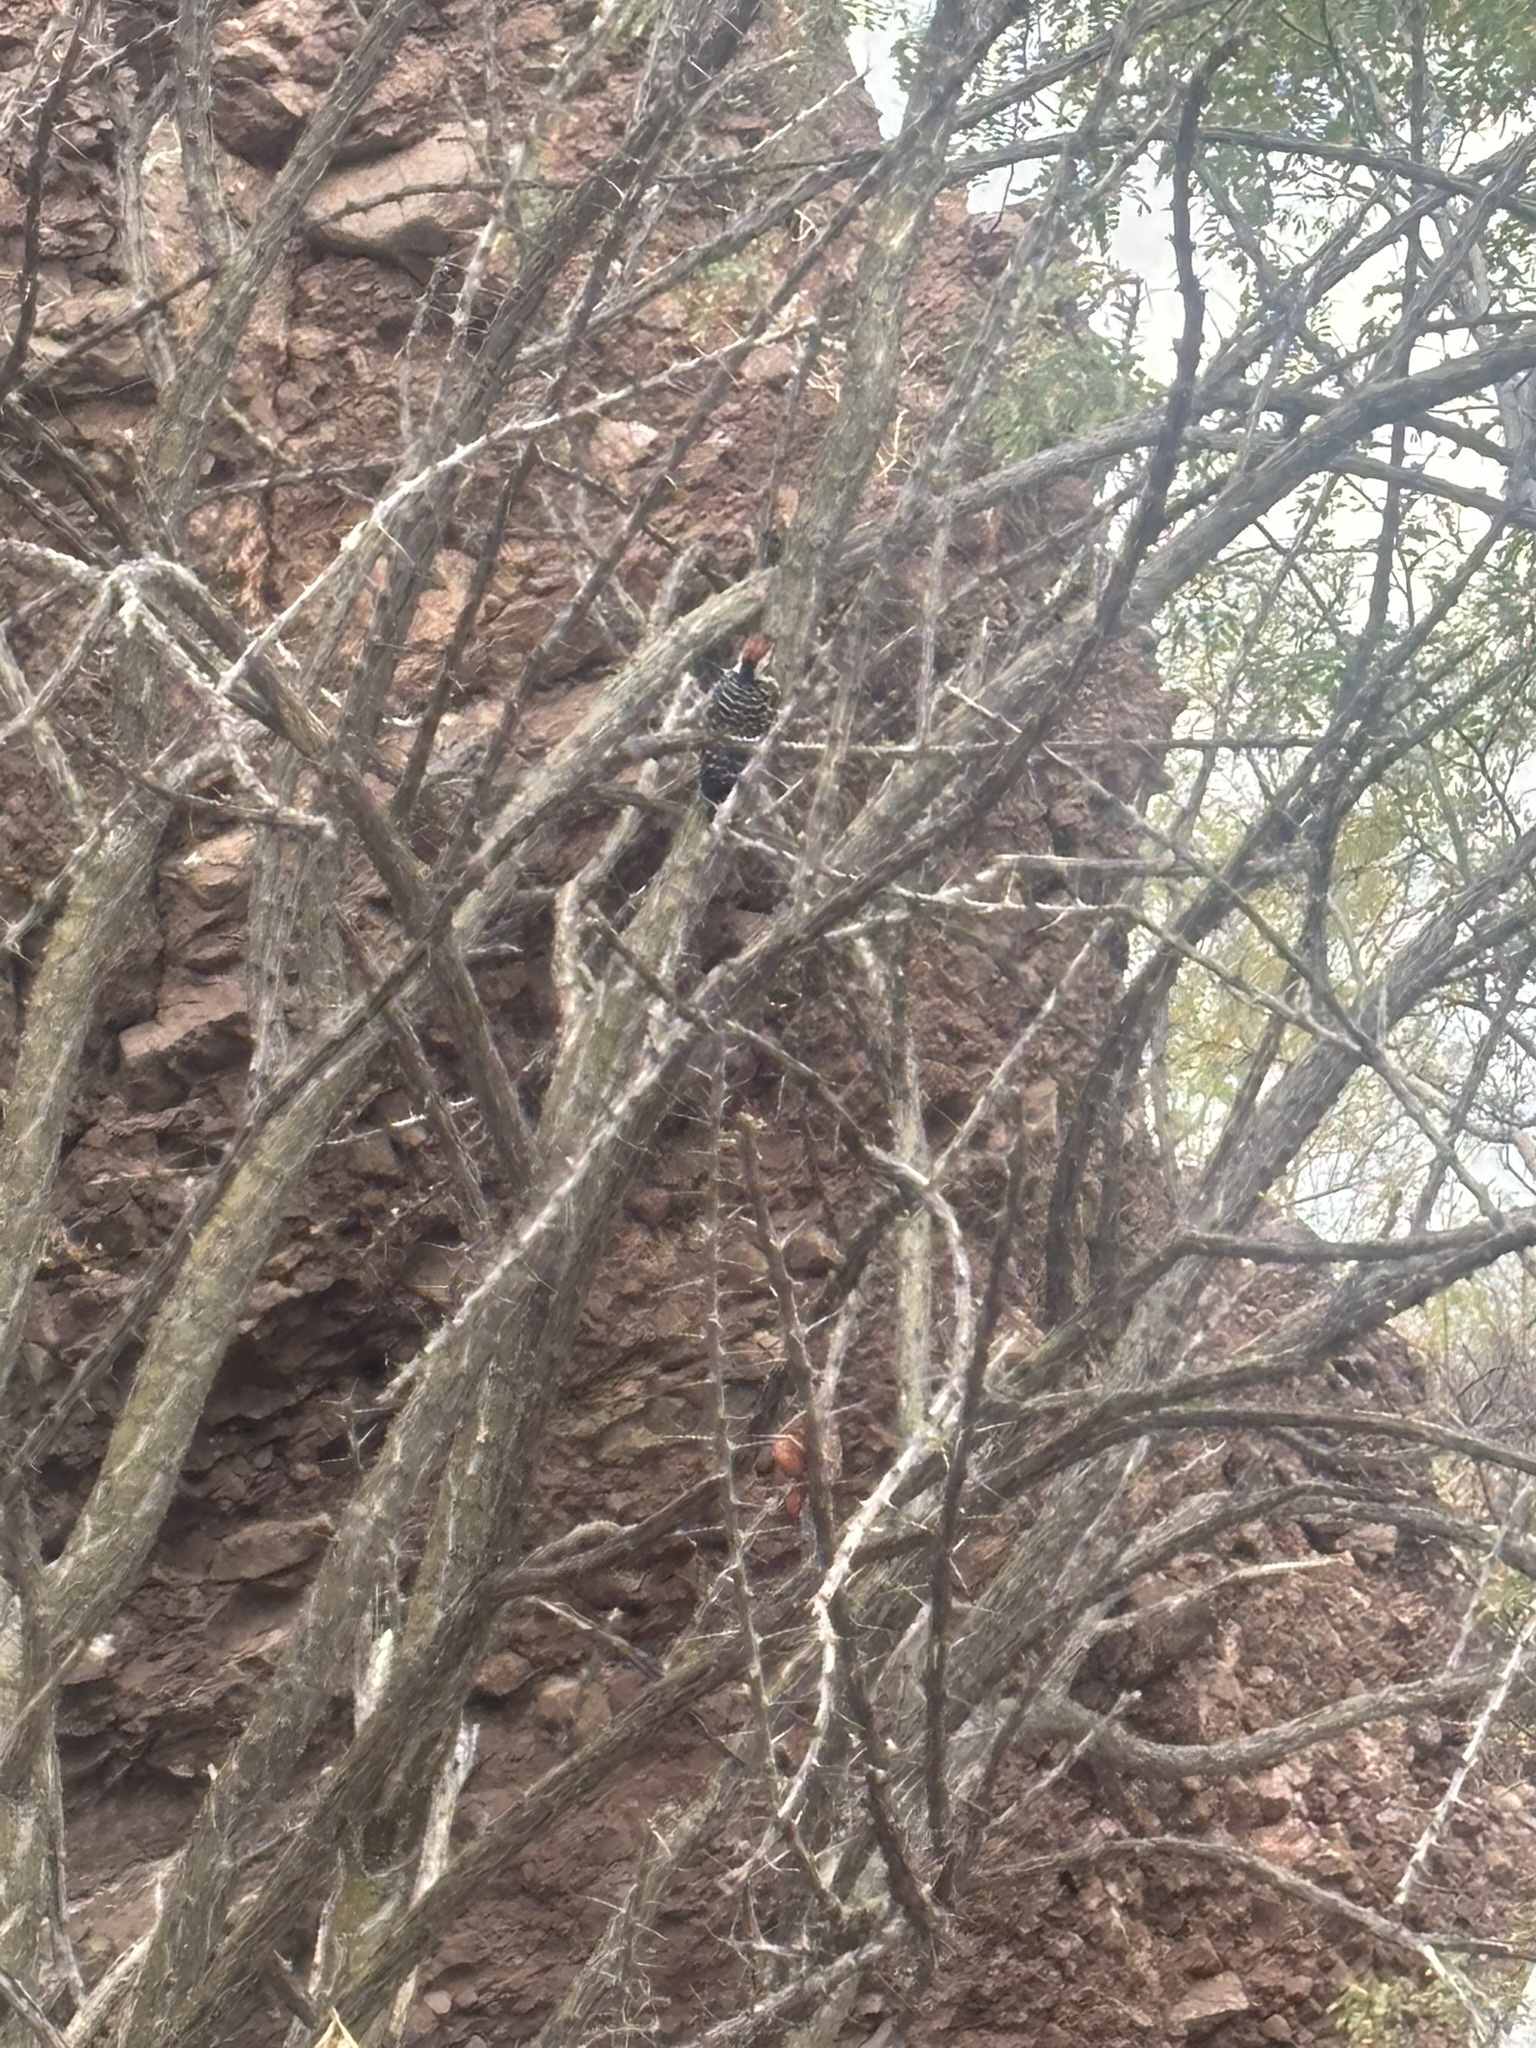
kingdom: Animalia
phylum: Chordata
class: Aves
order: Piciformes
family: Picidae
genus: Dryobates
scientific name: Dryobates scalaris
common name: Ladder-backed woodpecker
